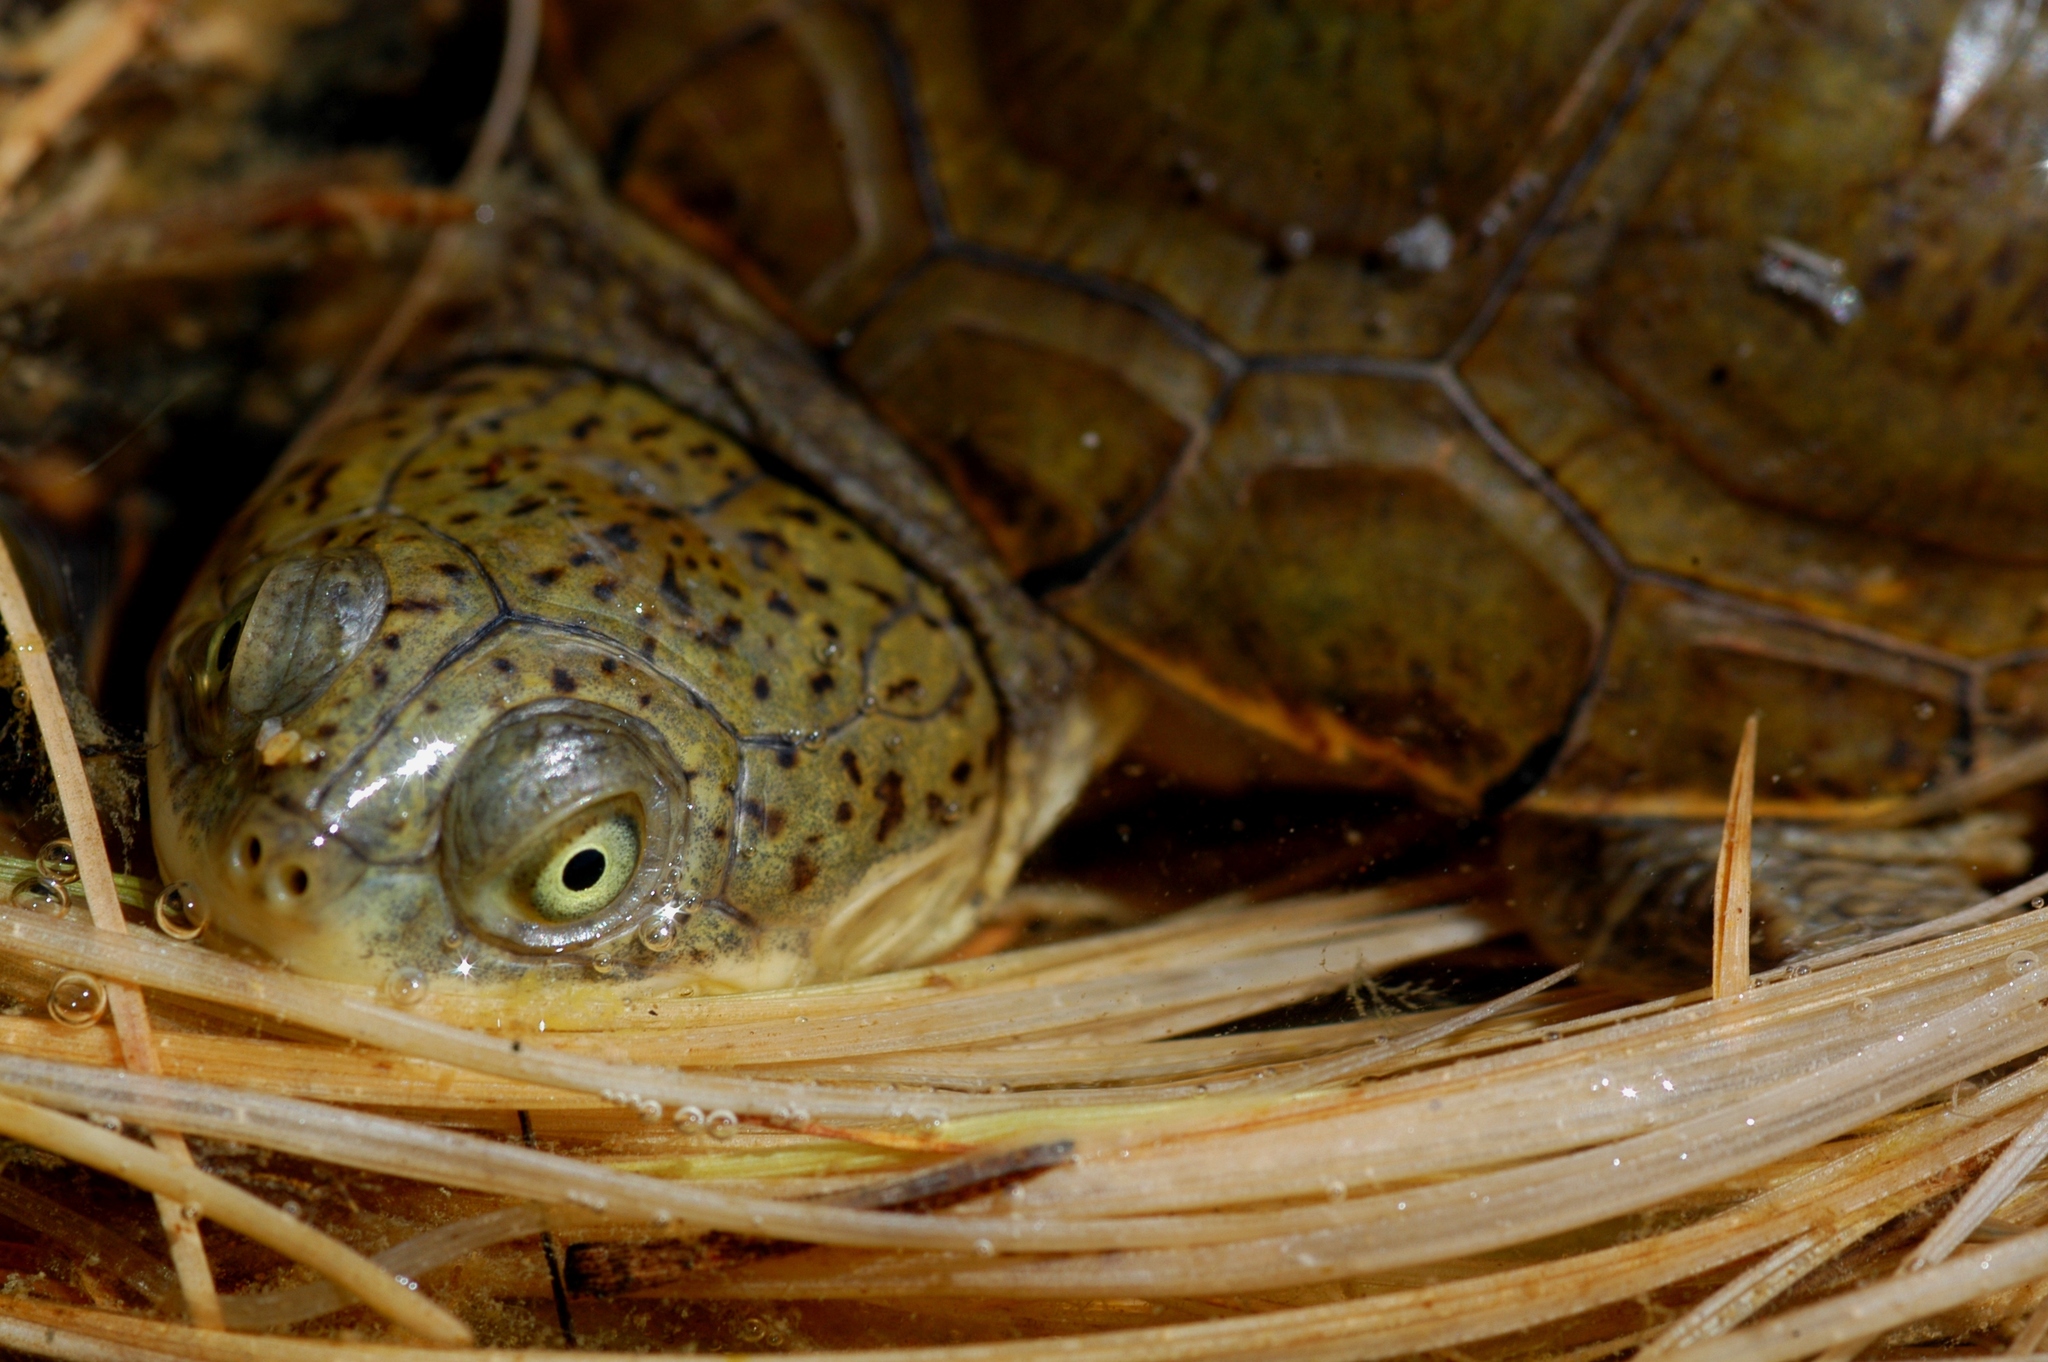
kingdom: Animalia
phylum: Chordata
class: Testudines
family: Pelomedusidae
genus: Pelomedusa
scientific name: Pelomedusa galeata
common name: South african helmeted terrapin
